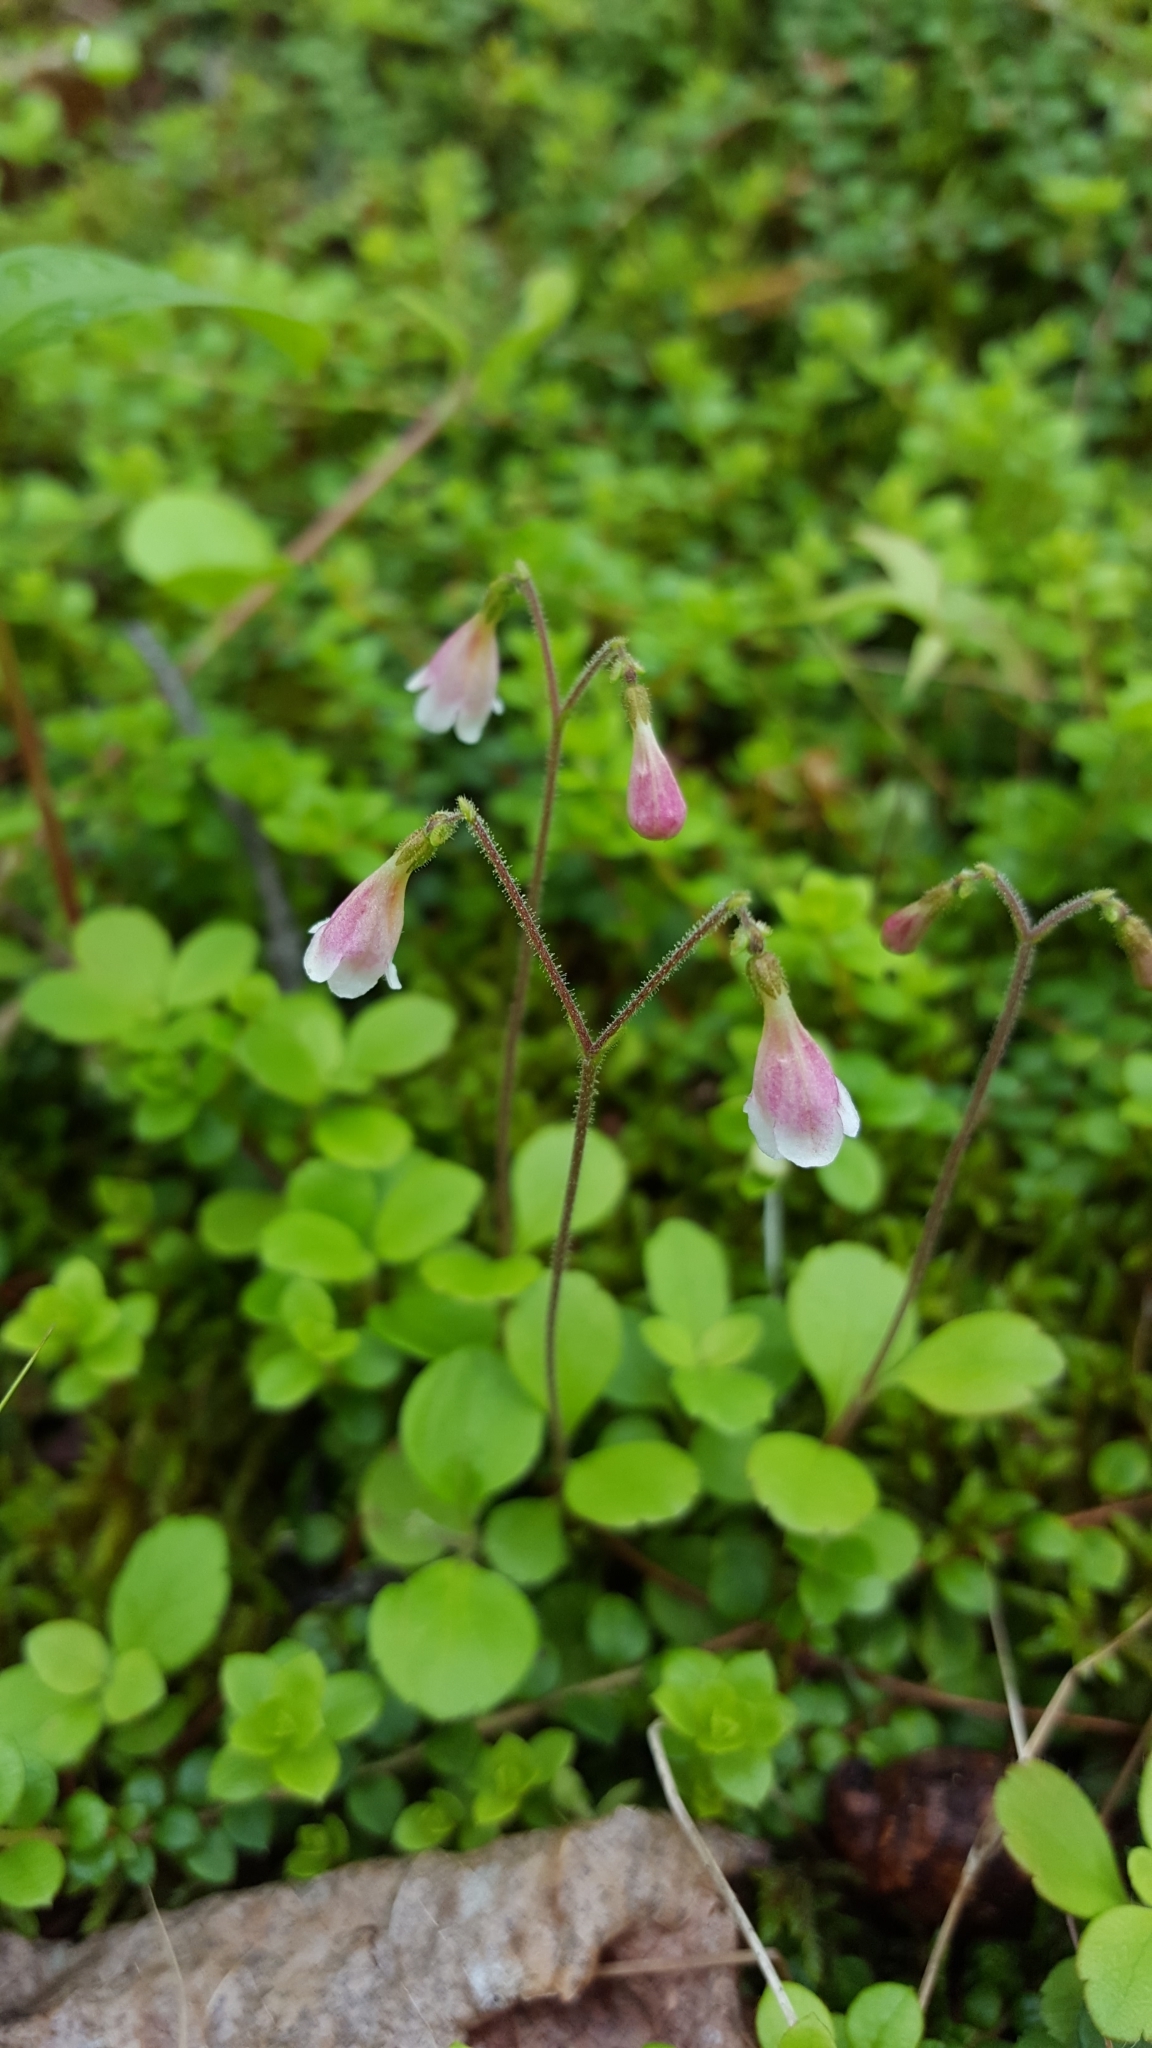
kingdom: Plantae
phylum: Tracheophyta
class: Magnoliopsida
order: Dipsacales
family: Caprifoliaceae
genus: Linnaea
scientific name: Linnaea borealis
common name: Twinflower
